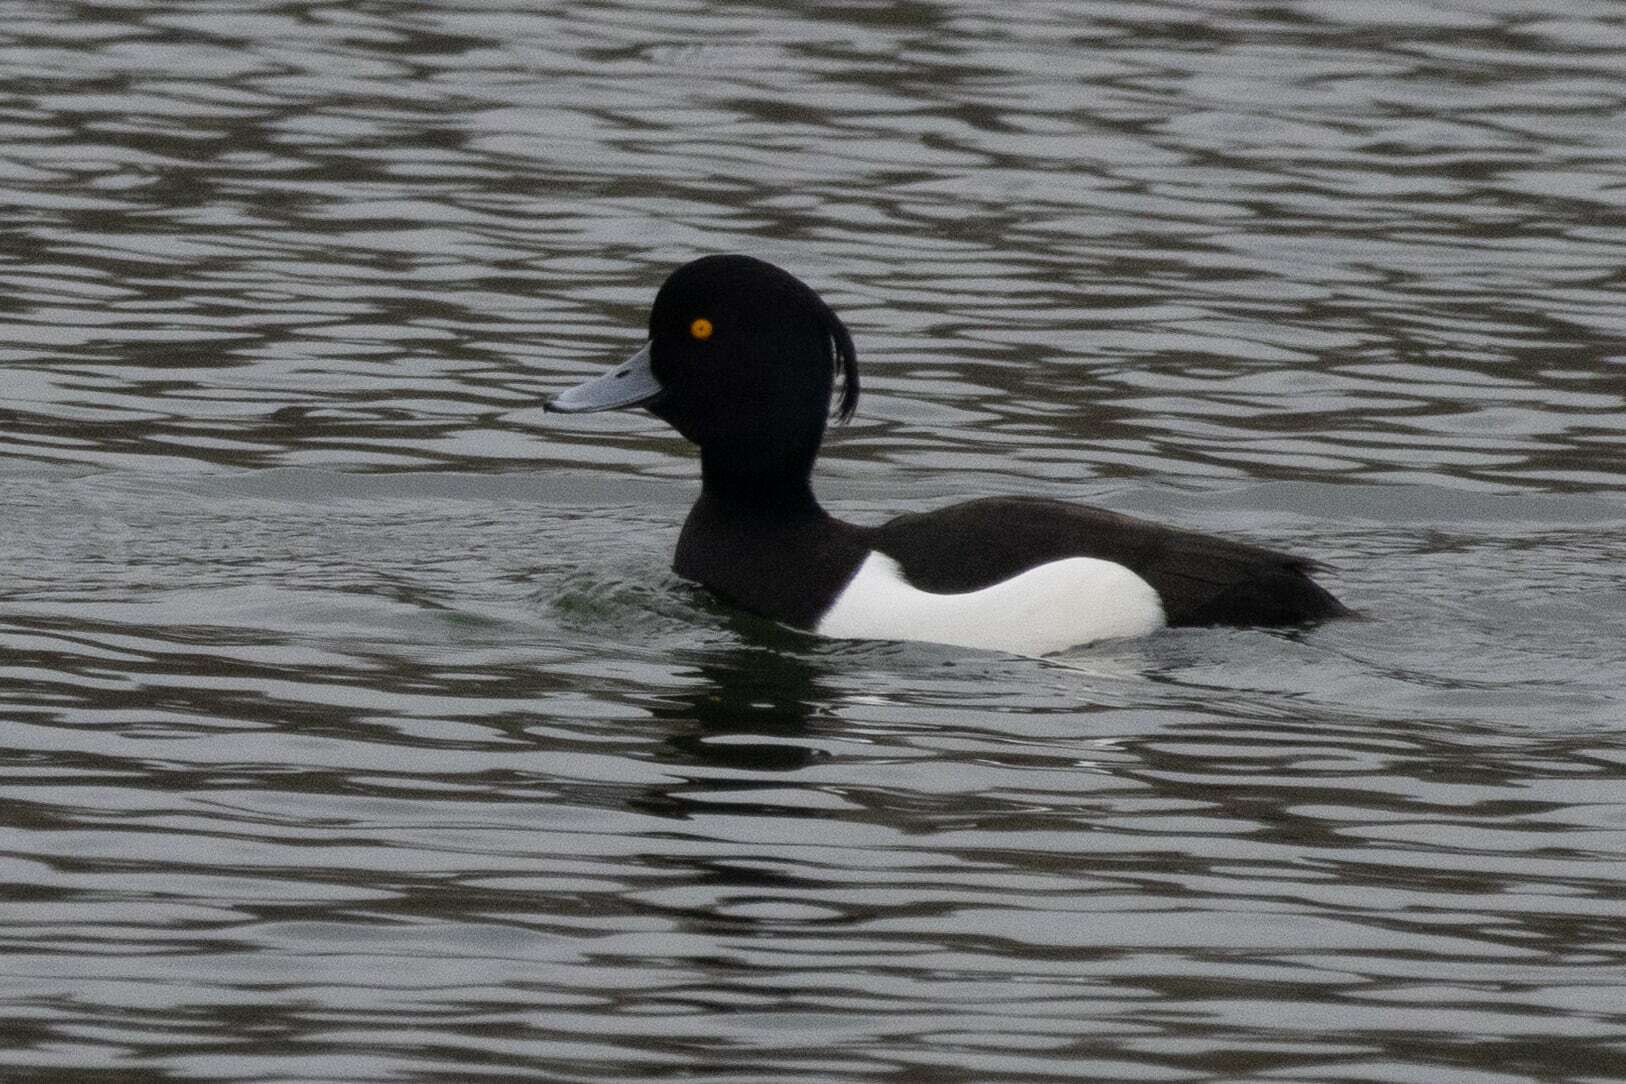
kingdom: Animalia
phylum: Chordata
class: Aves
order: Anseriformes
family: Anatidae
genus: Aythya
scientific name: Aythya fuligula
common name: Tufted duck
